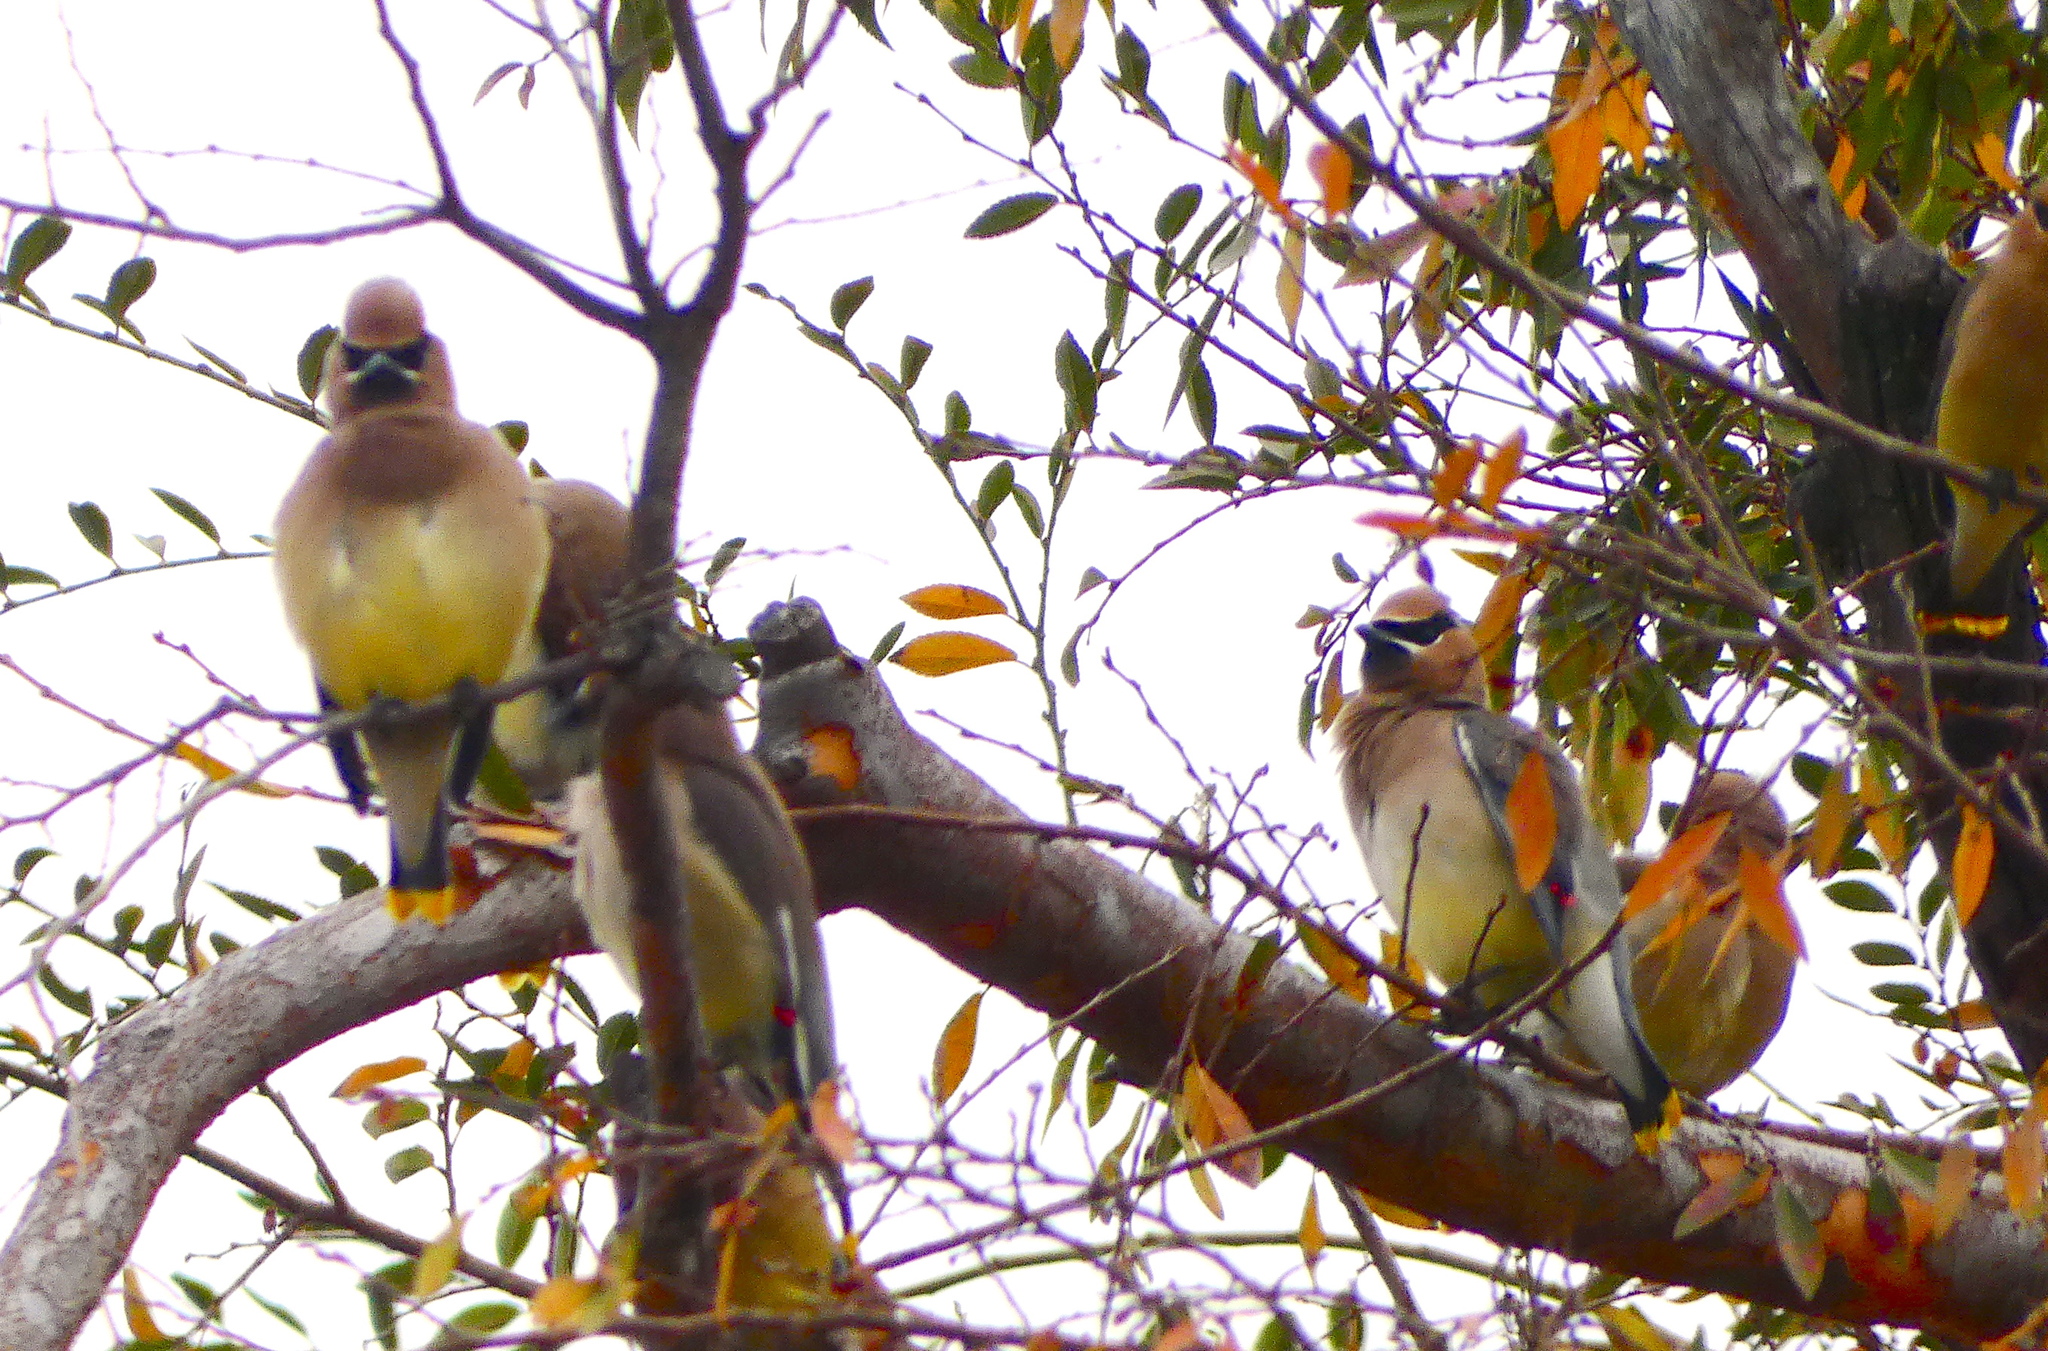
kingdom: Animalia
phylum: Chordata
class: Aves
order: Passeriformes
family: Bombycillidae
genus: Bombycilla
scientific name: Bombycilla cedrorum
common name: Cedar waxwing
